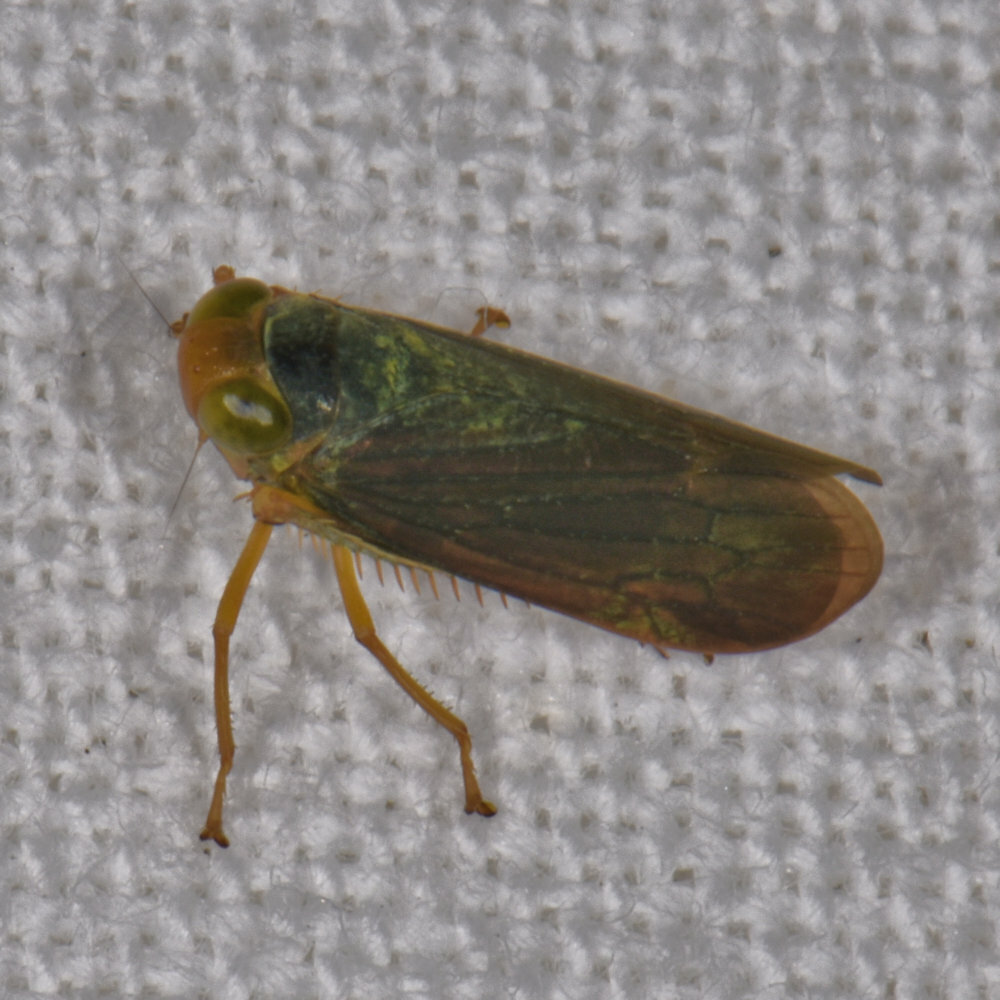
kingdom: Animalia
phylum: Arthropoda
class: Insecta
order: Hemiptera
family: Cicadellidae
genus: Jikradia
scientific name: Jikradia olitoria
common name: Coppery leafhopper
